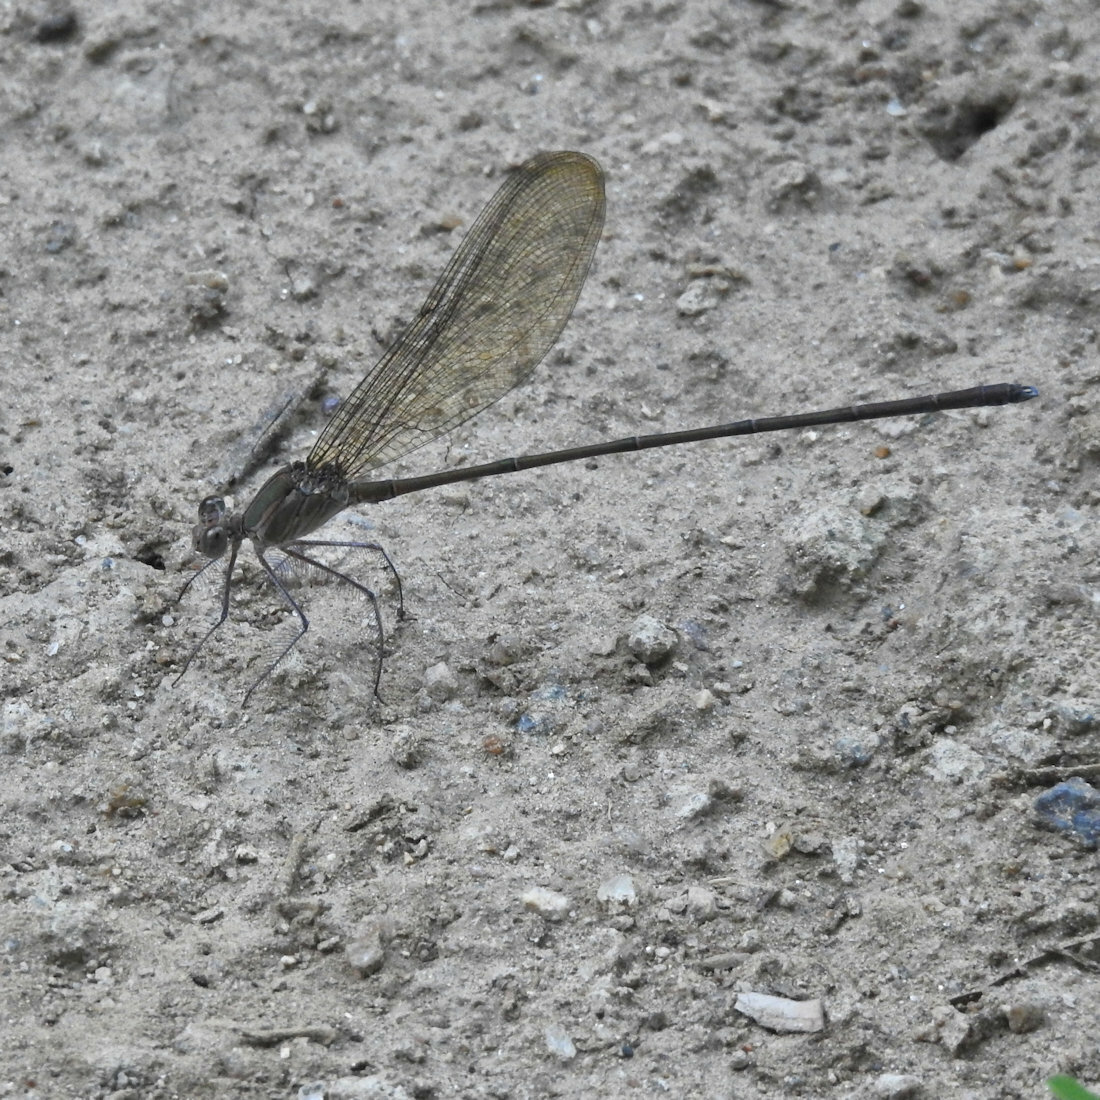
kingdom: Animalia
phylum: Arthropoda
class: Insecta
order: Odonata
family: Calopterygidae
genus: Phaon
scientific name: Phaon iridipennis
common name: Glistening demoiselle
